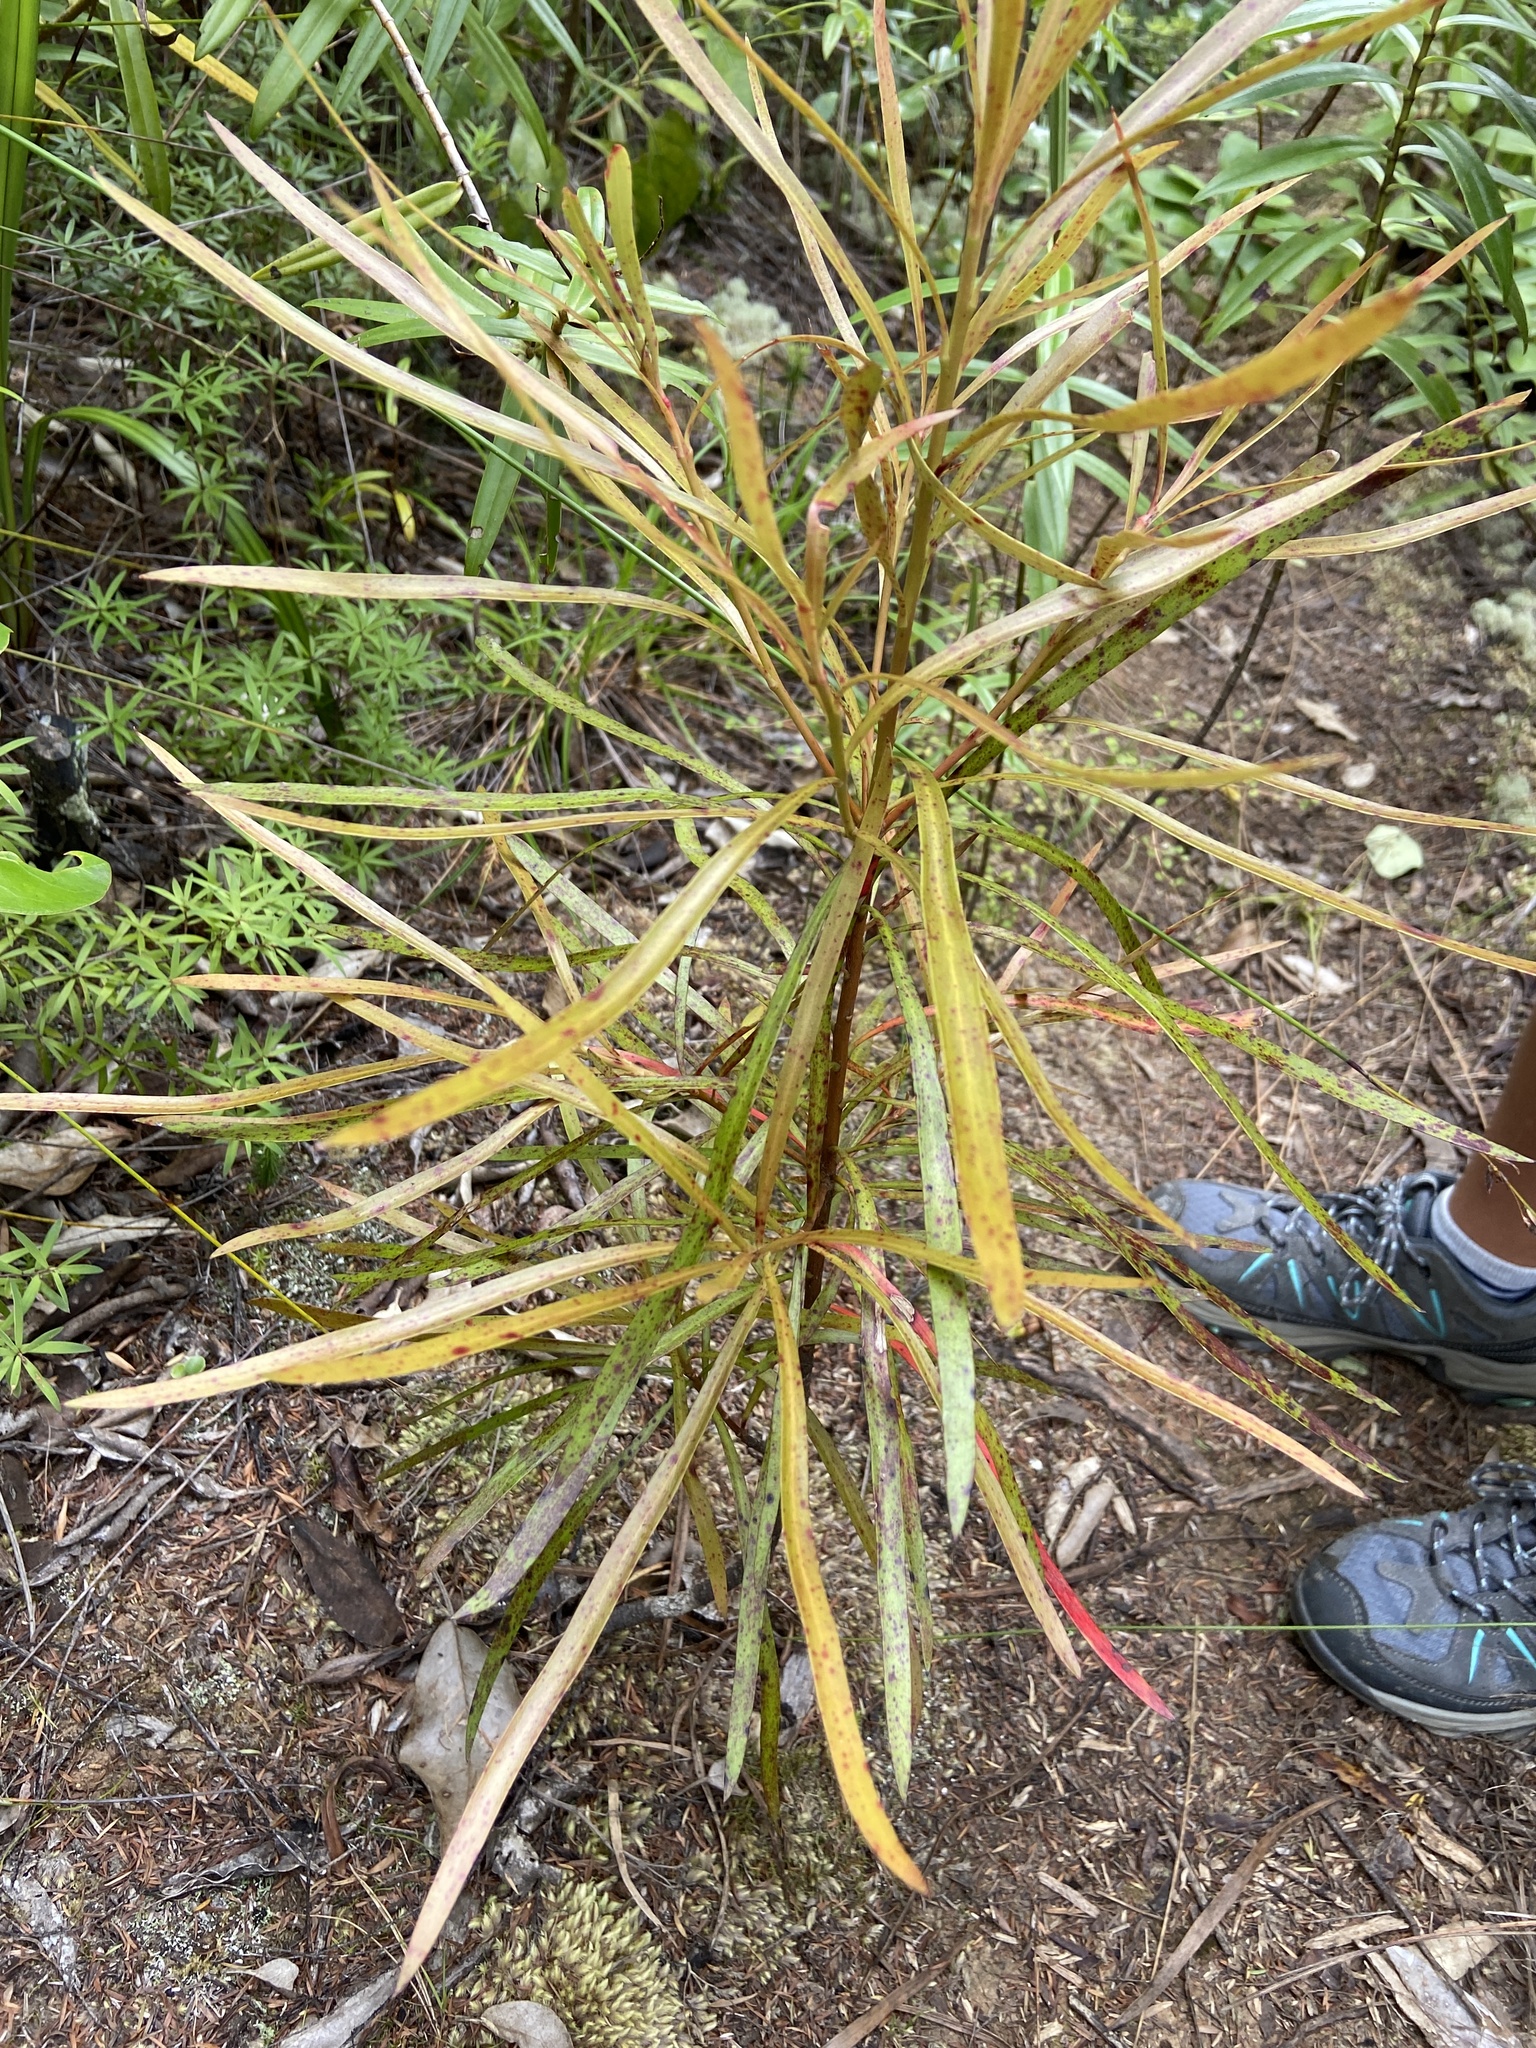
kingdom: Plantae
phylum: Tracheophyta
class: Magnoliopsida
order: Proteales
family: Proteaceae
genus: Toronia
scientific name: Toronia toru
